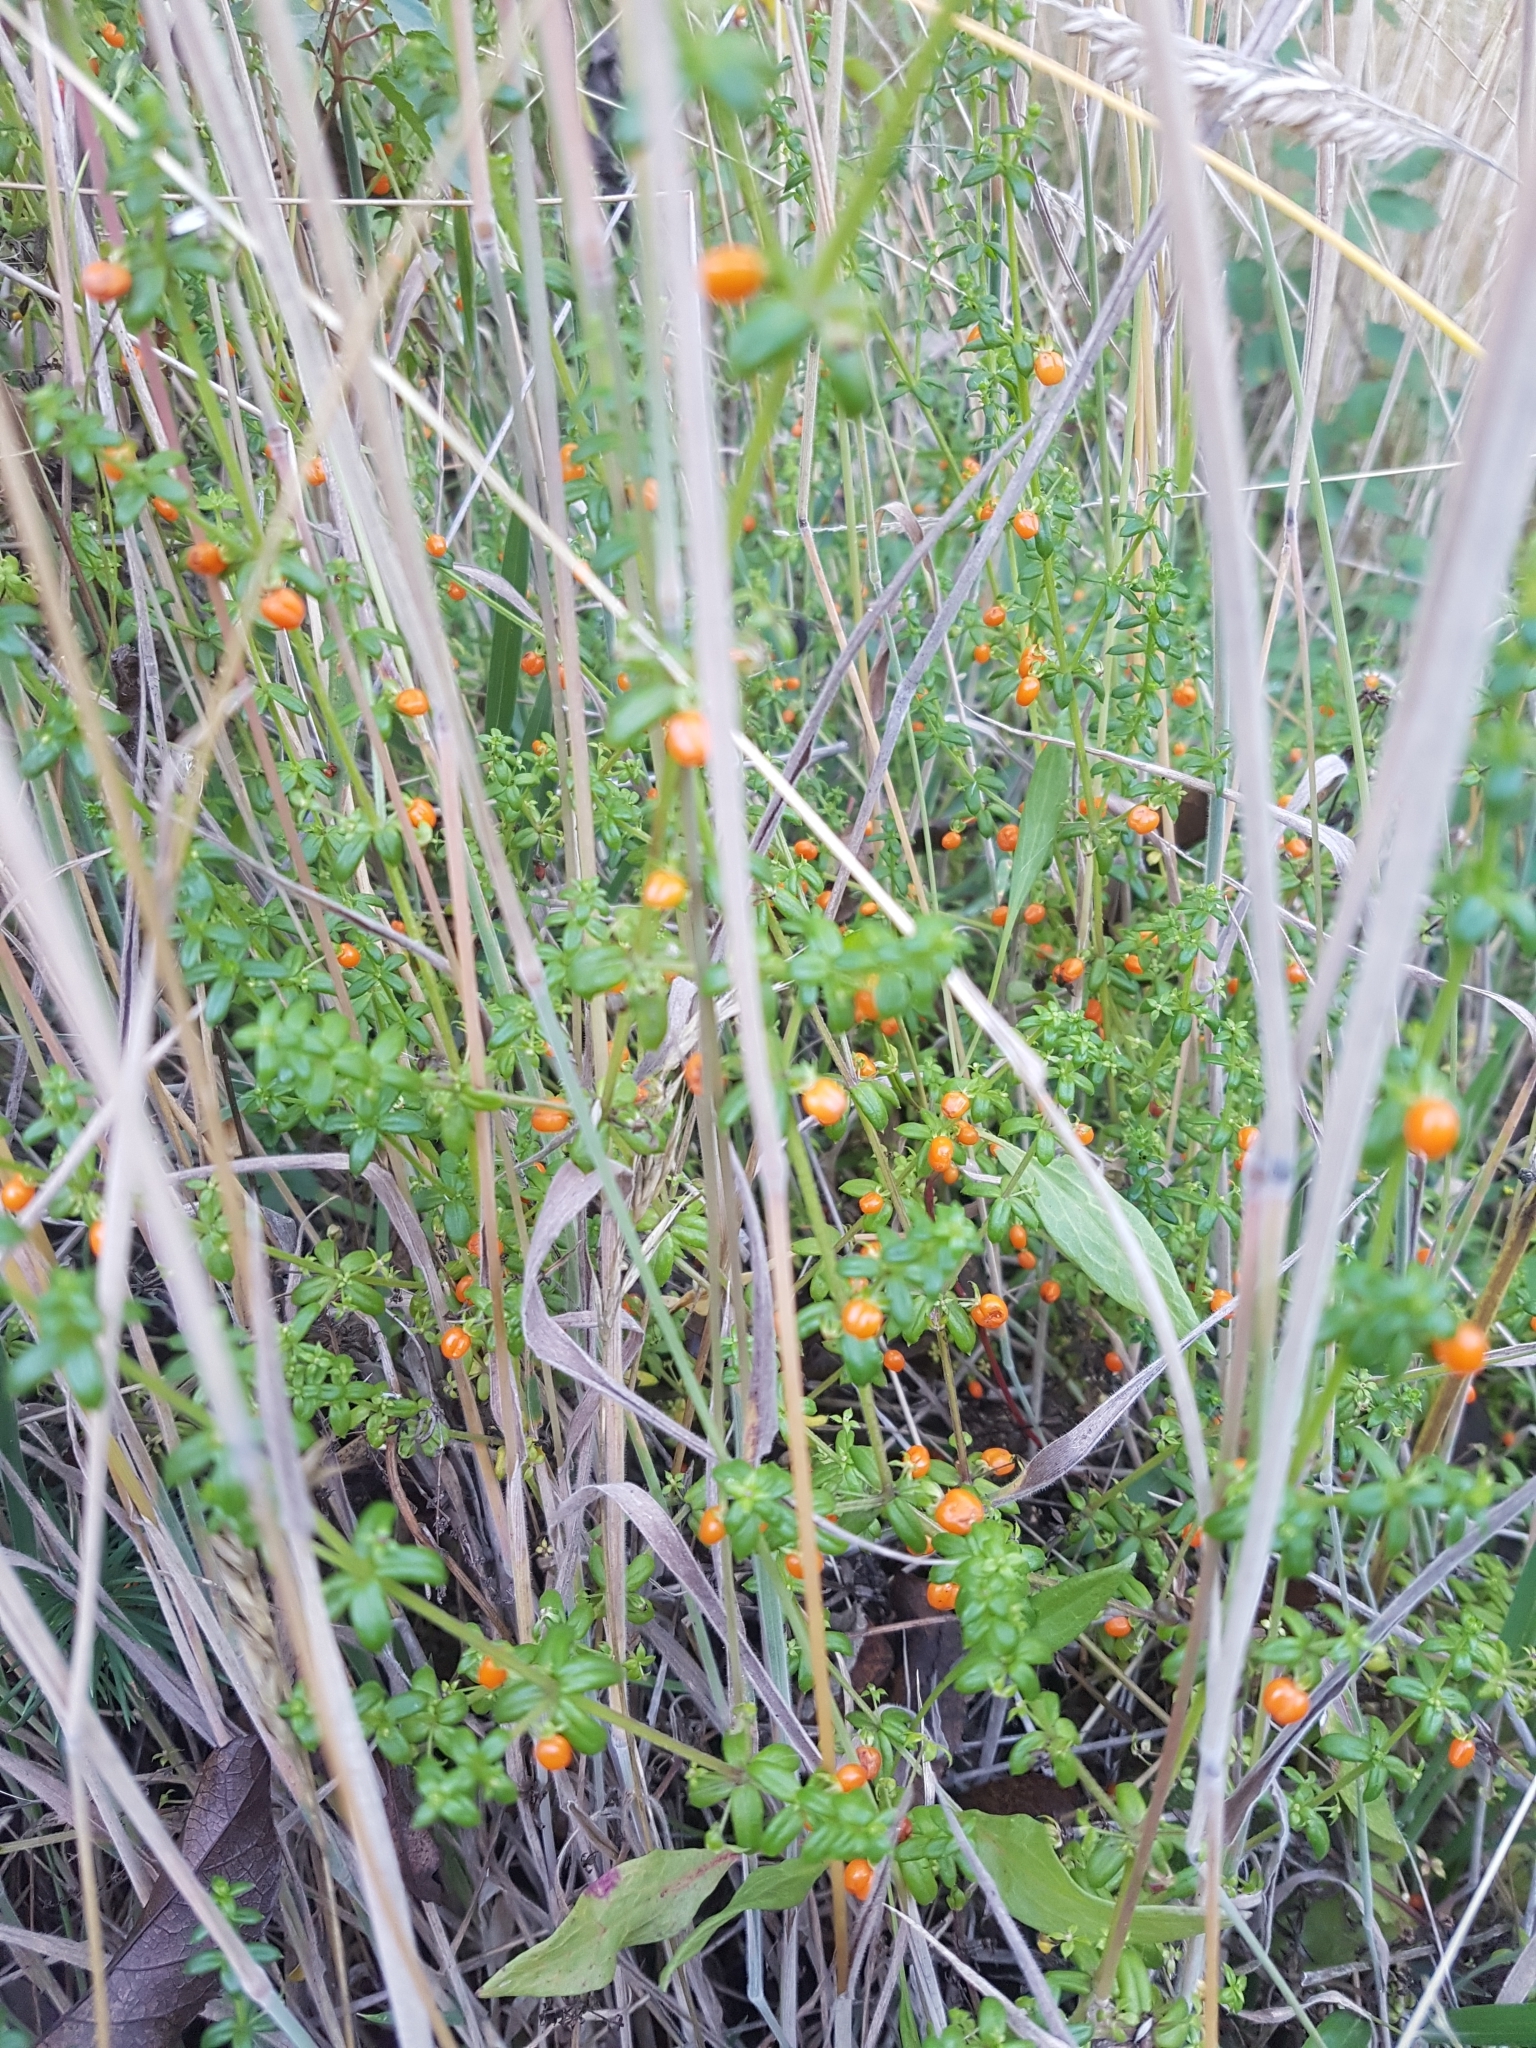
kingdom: Plantae
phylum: Tracheophyta
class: Magnoliopsida
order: Gentianales
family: Rubiaceae
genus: Galium
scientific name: Galium hypocarpium
